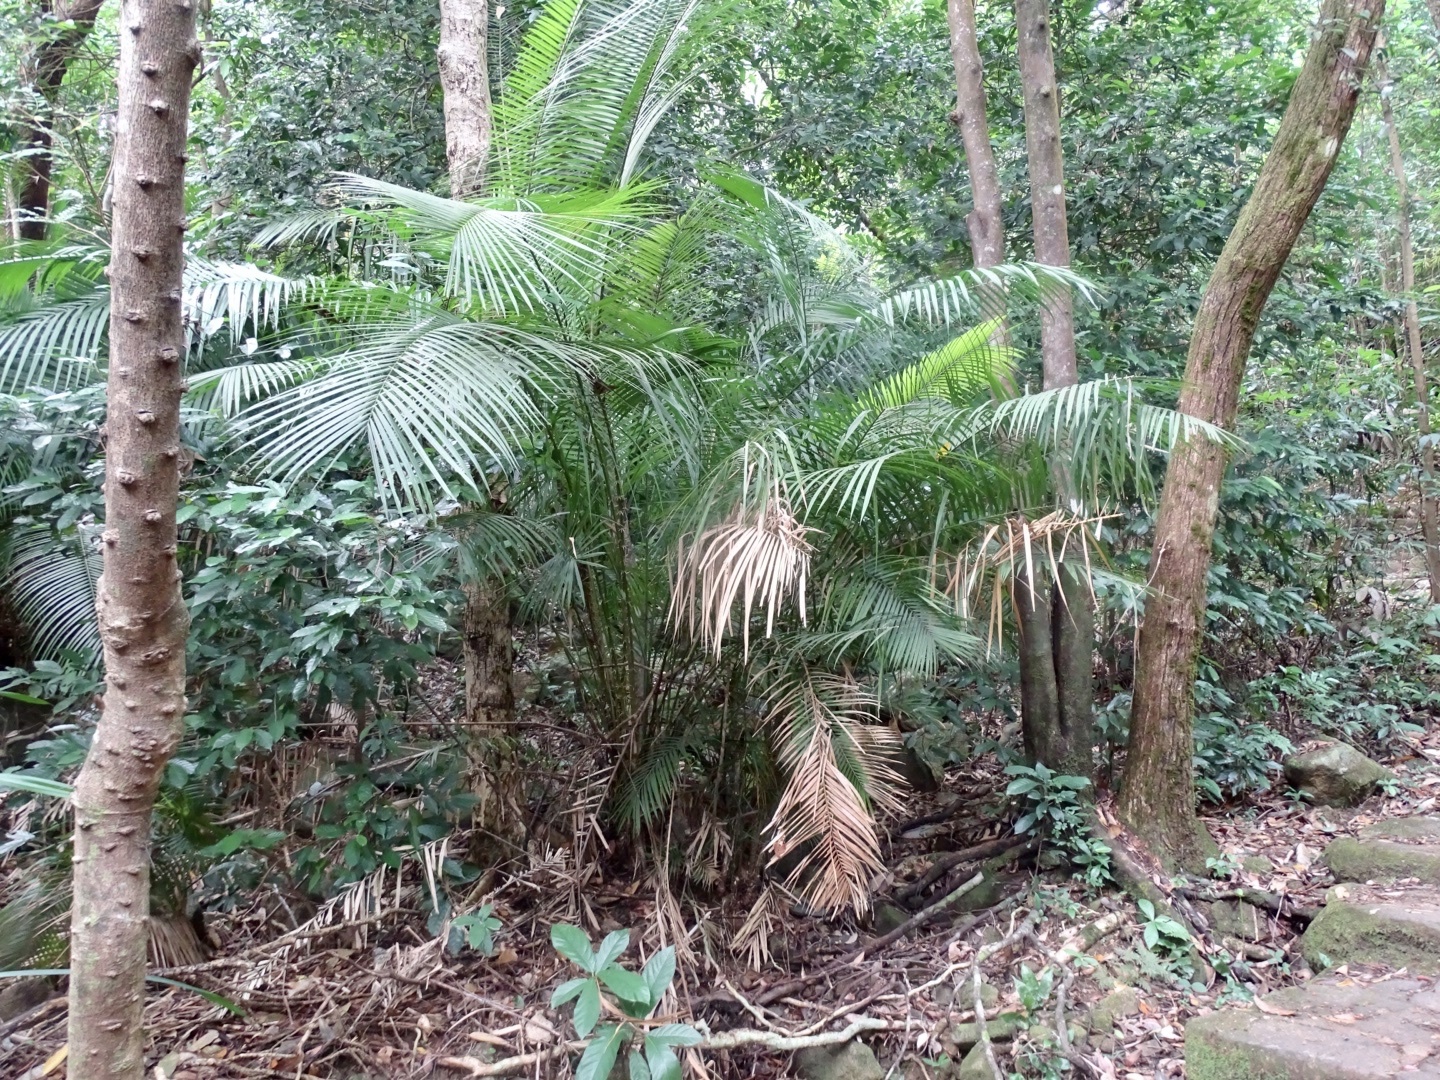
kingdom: Plantae
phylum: Tracheophyta
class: Liliopsida
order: Arecales
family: Arecaceae
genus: Calamus
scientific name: Calamus melanochaetes
